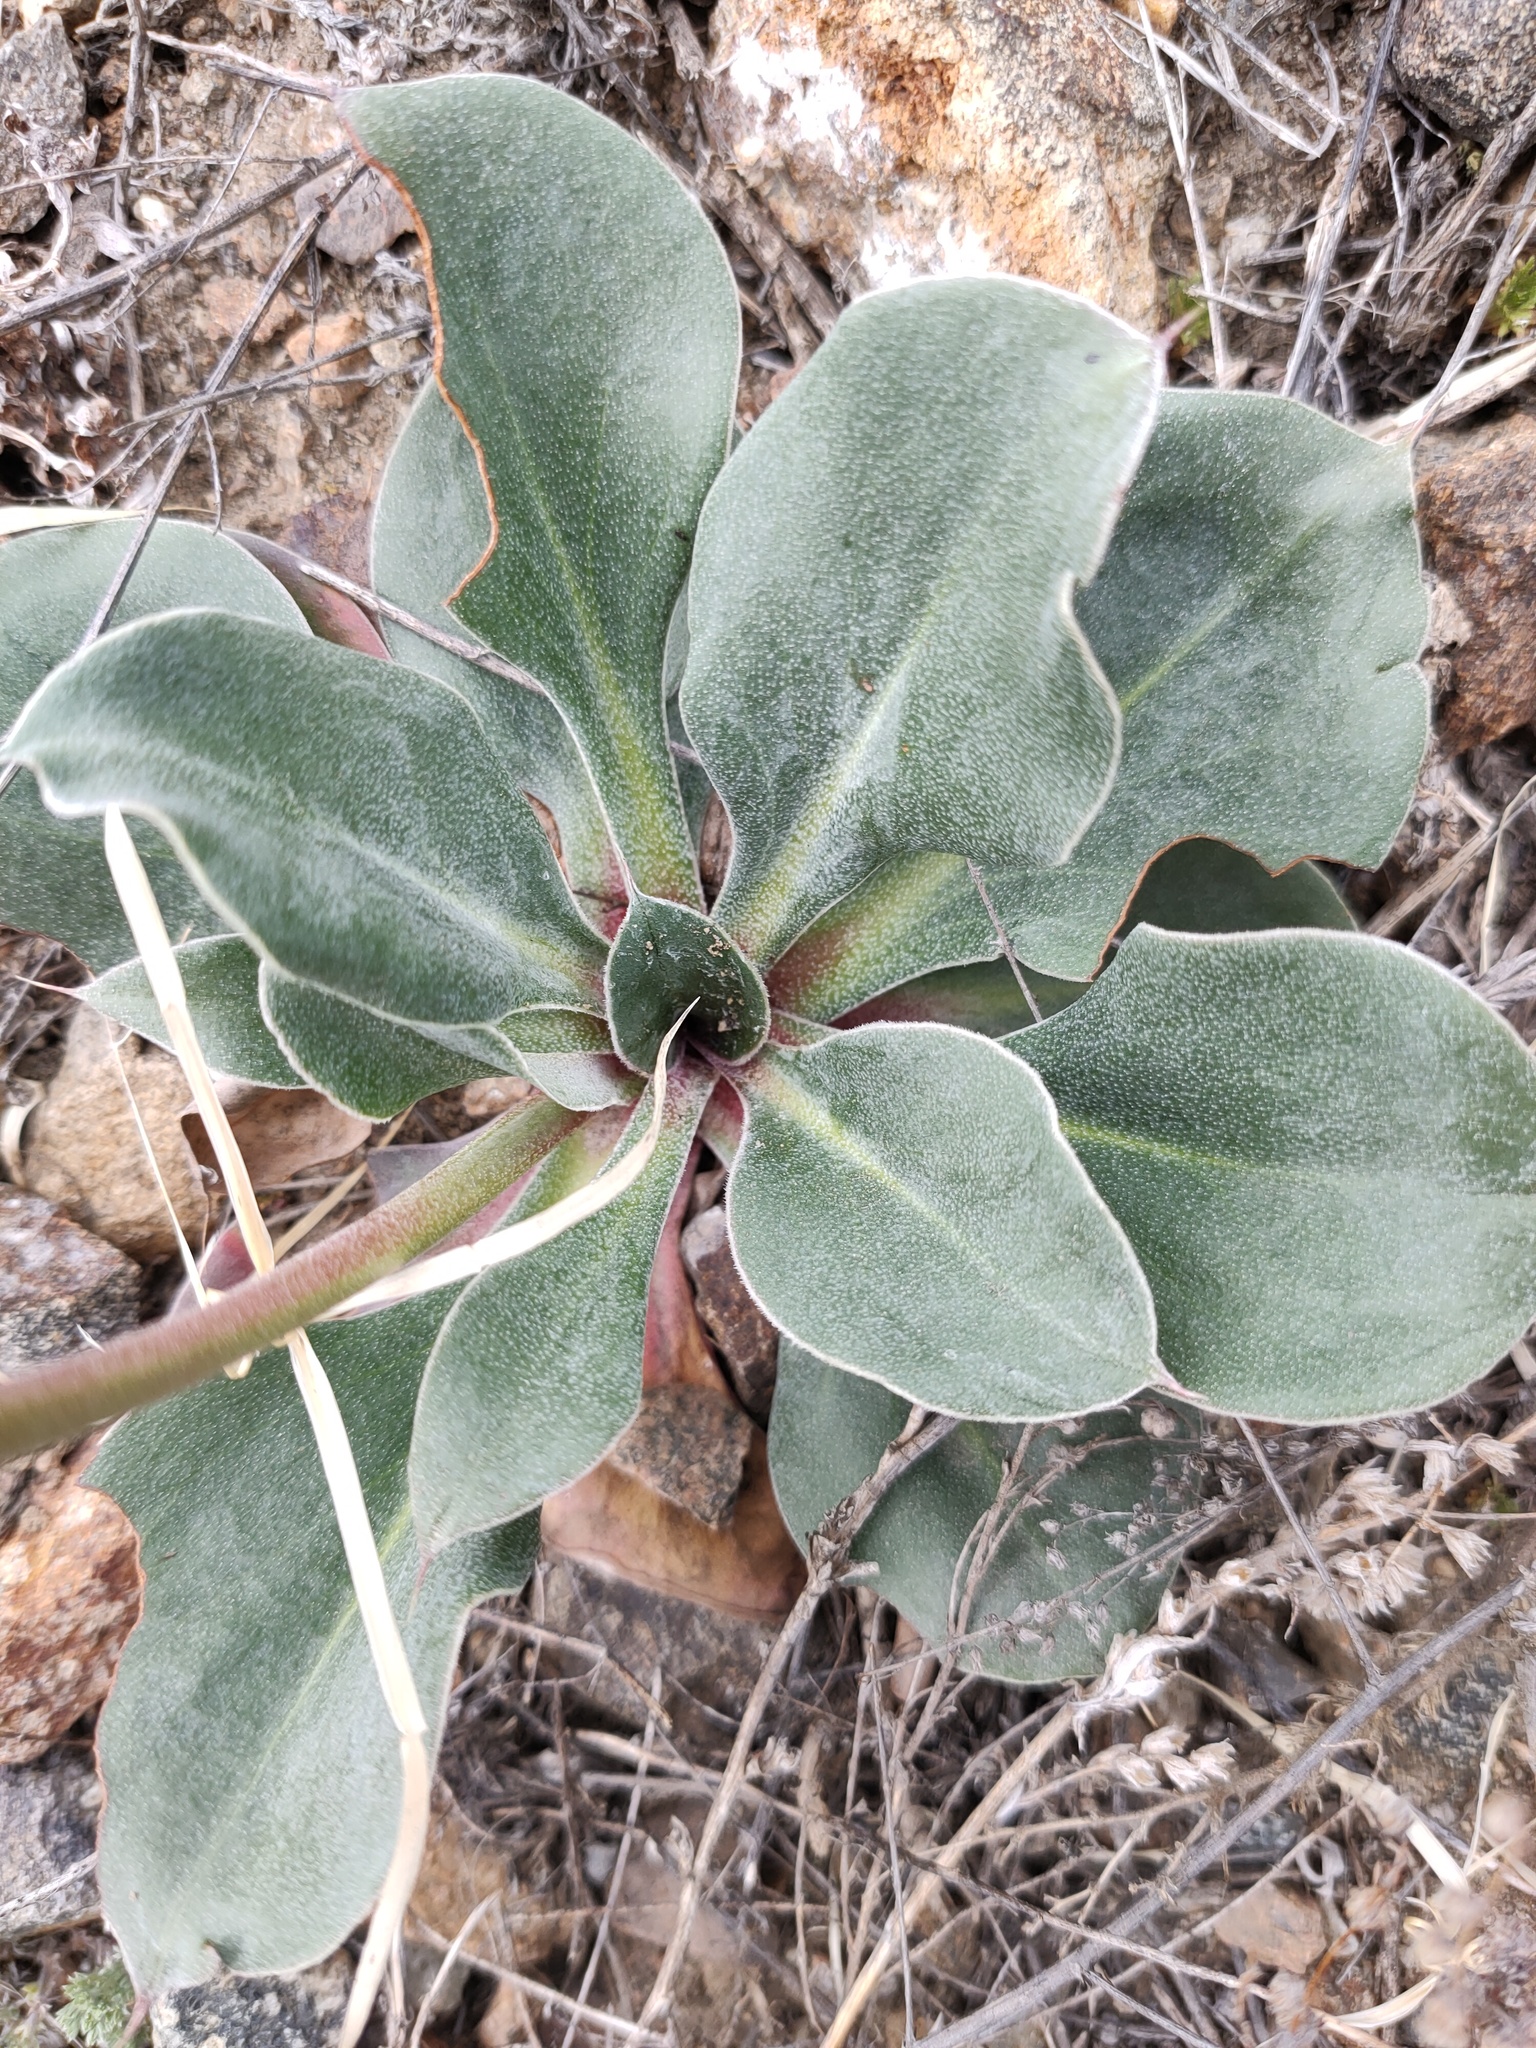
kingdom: Plantae
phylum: Tracheophyta
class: Magnoliopsida
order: Caryophyllales
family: Plumbaginaceae
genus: Goniolimon
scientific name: Goniolimon speciosum
